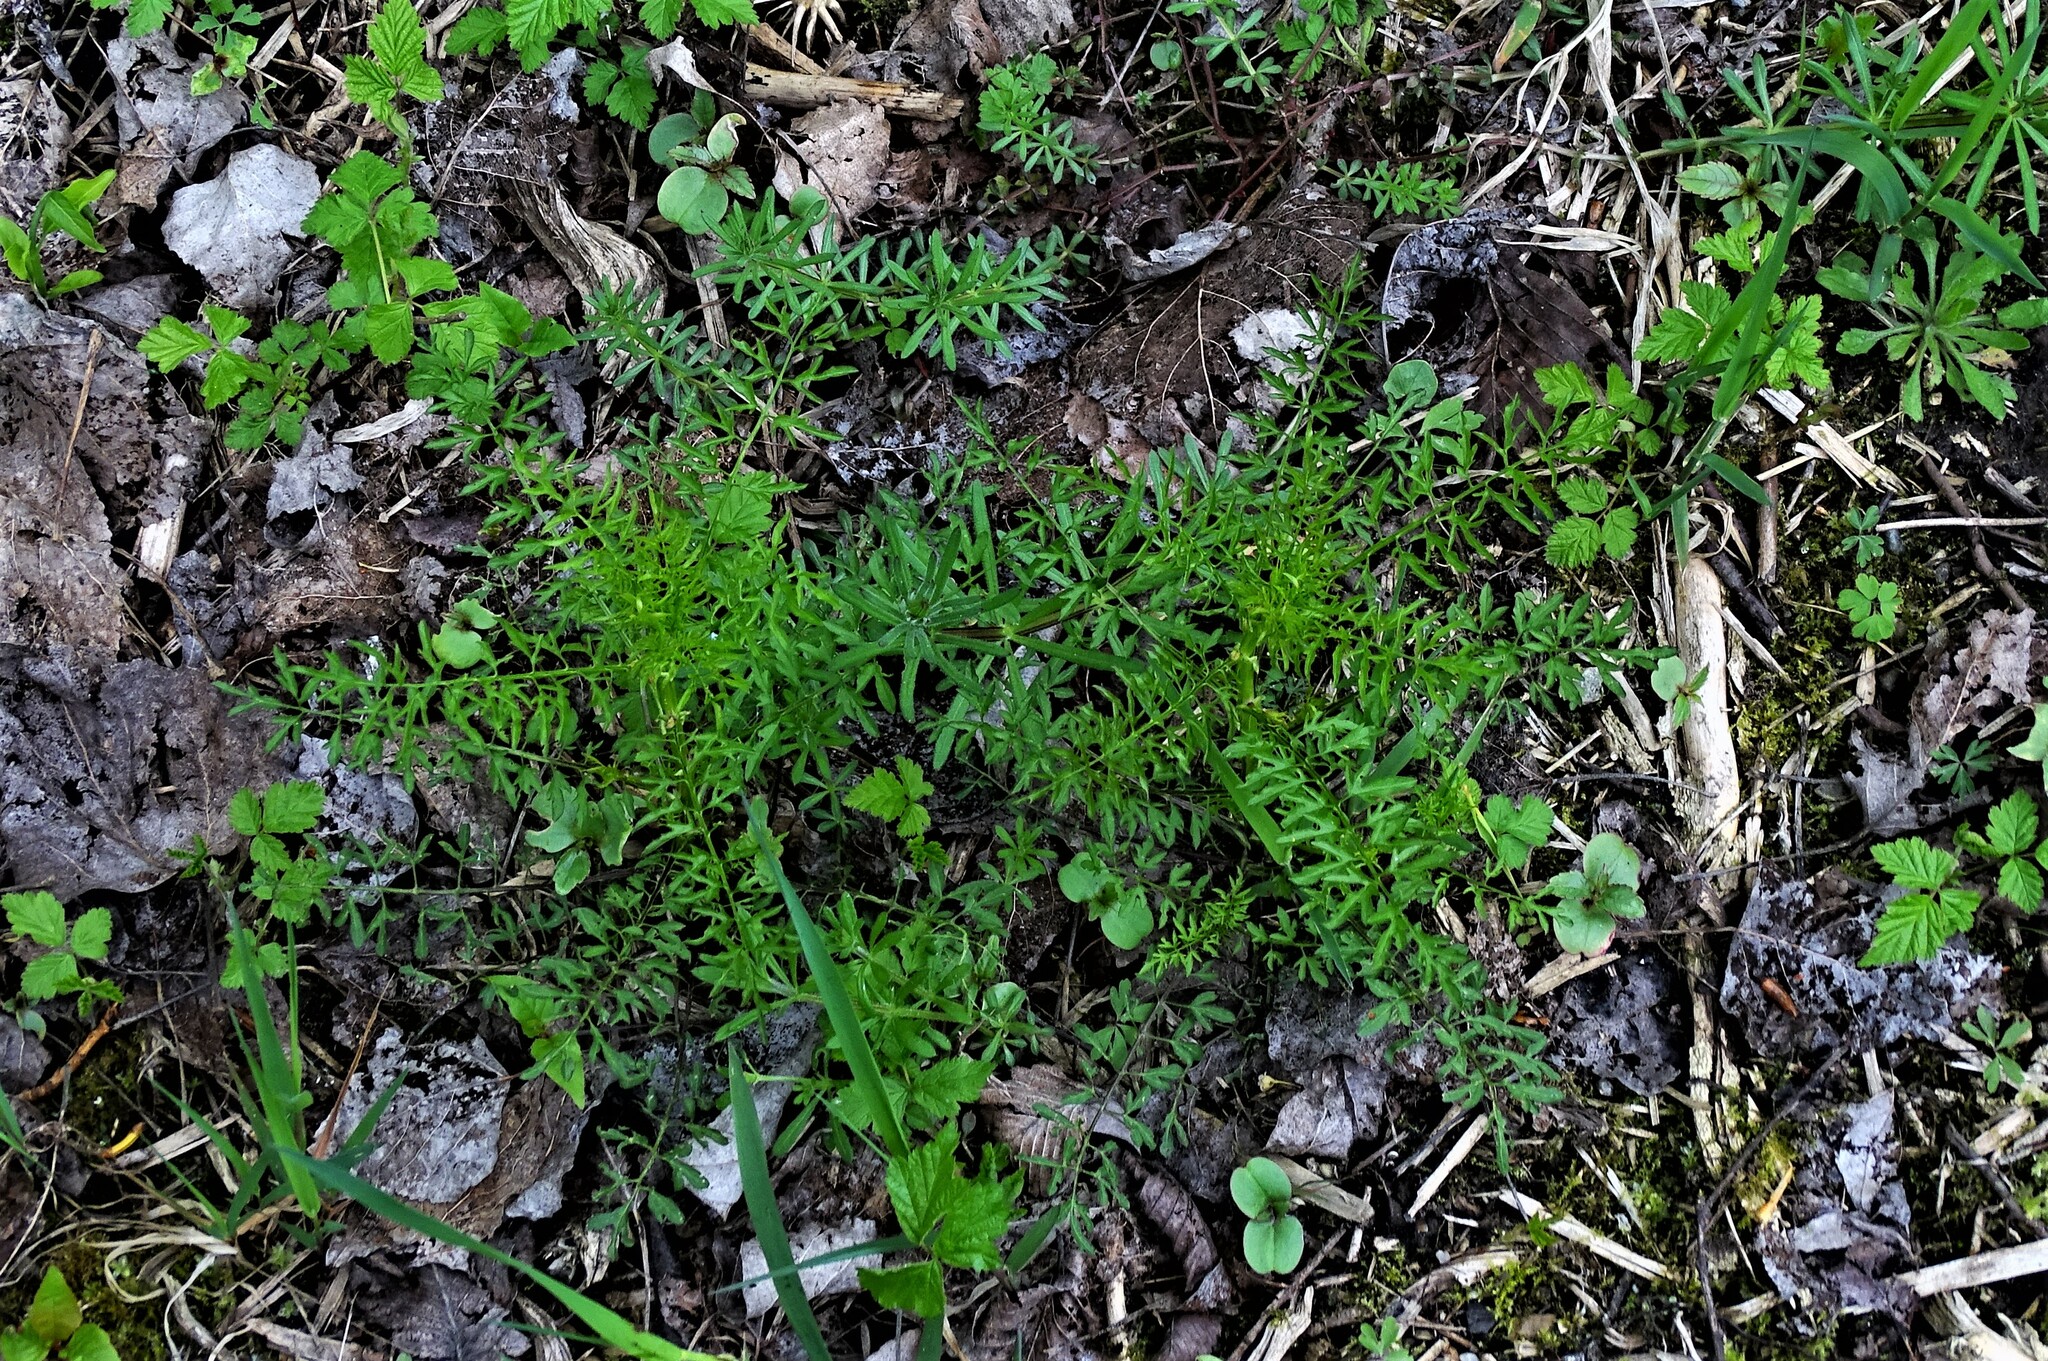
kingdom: Plantae
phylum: Tracheophyta
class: Magnoliopsida
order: Brassicales
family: Brassicaceae
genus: Cardamine
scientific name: Cardamine impatiens
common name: Narrow-leaved bitter-cress
